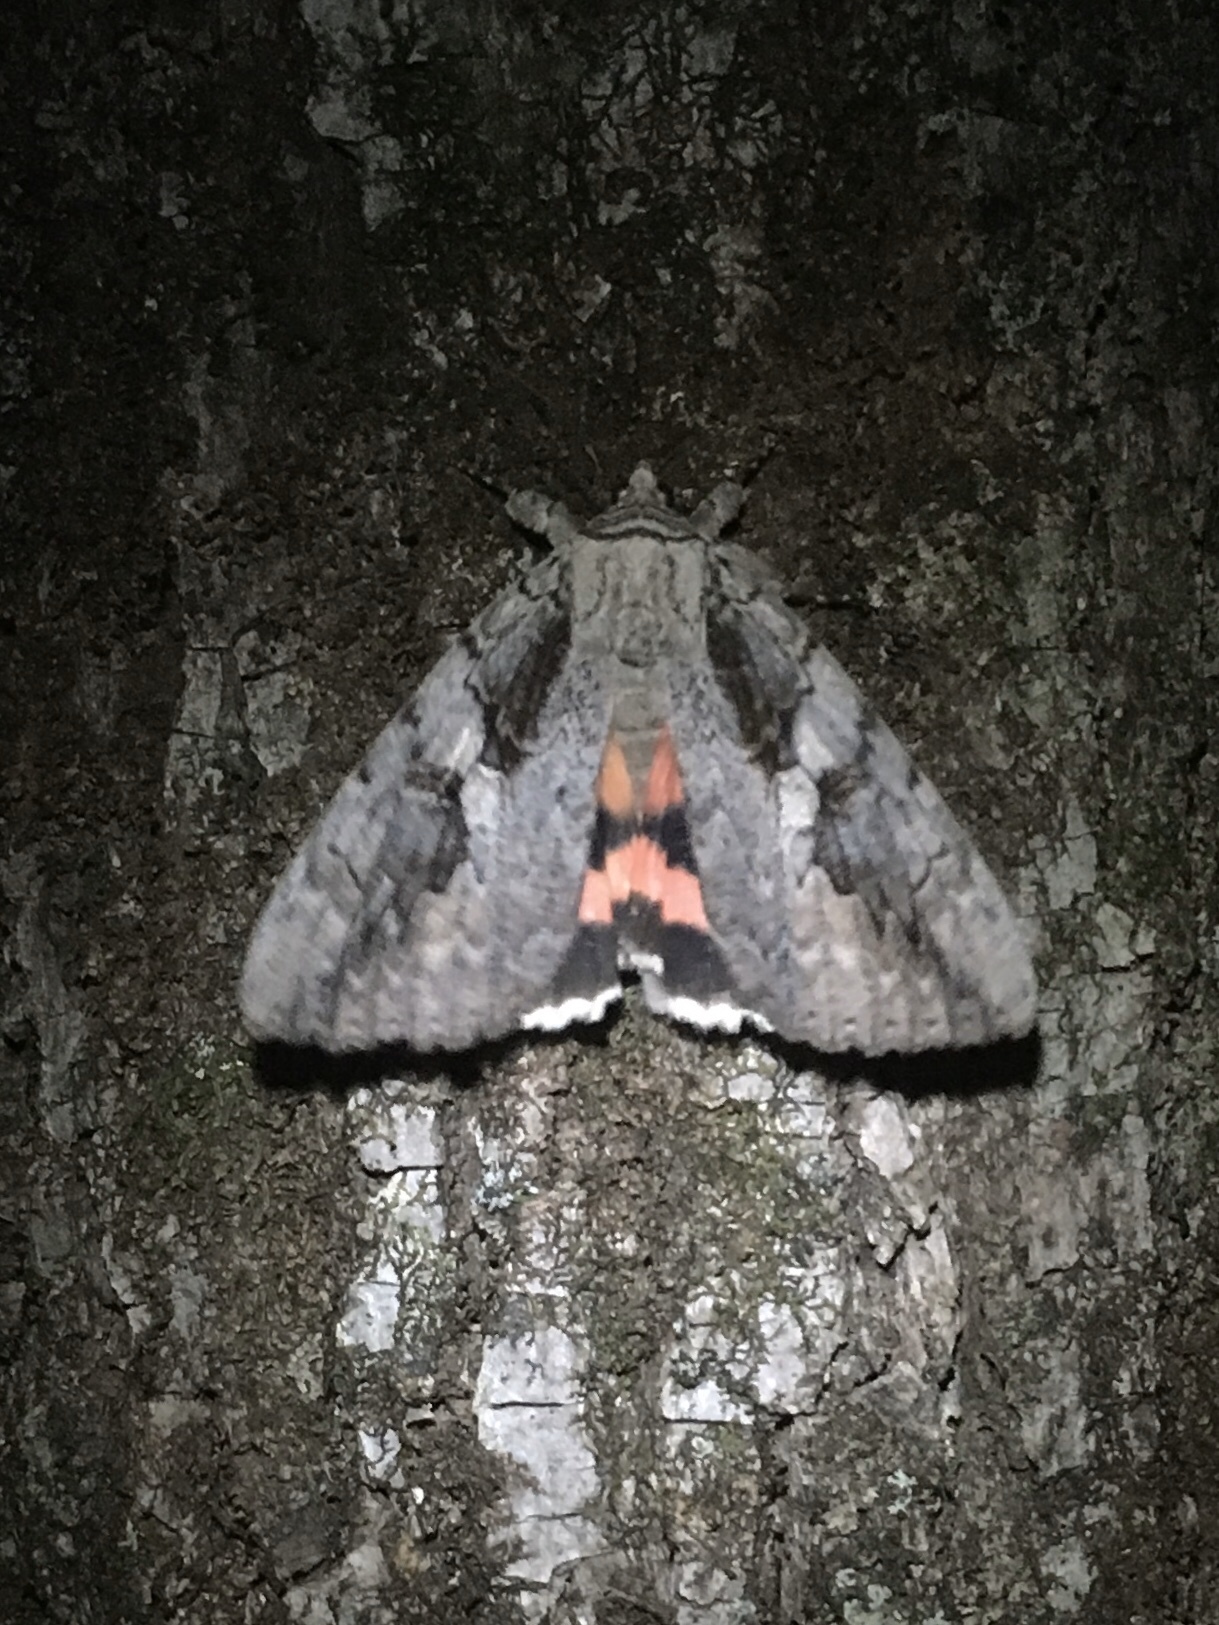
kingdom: Animalia
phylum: Arthropoda
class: Insecta
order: Lepidoptera
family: Erebidae
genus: Catocala
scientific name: Catocala amatrix
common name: Sweetheart underwing
